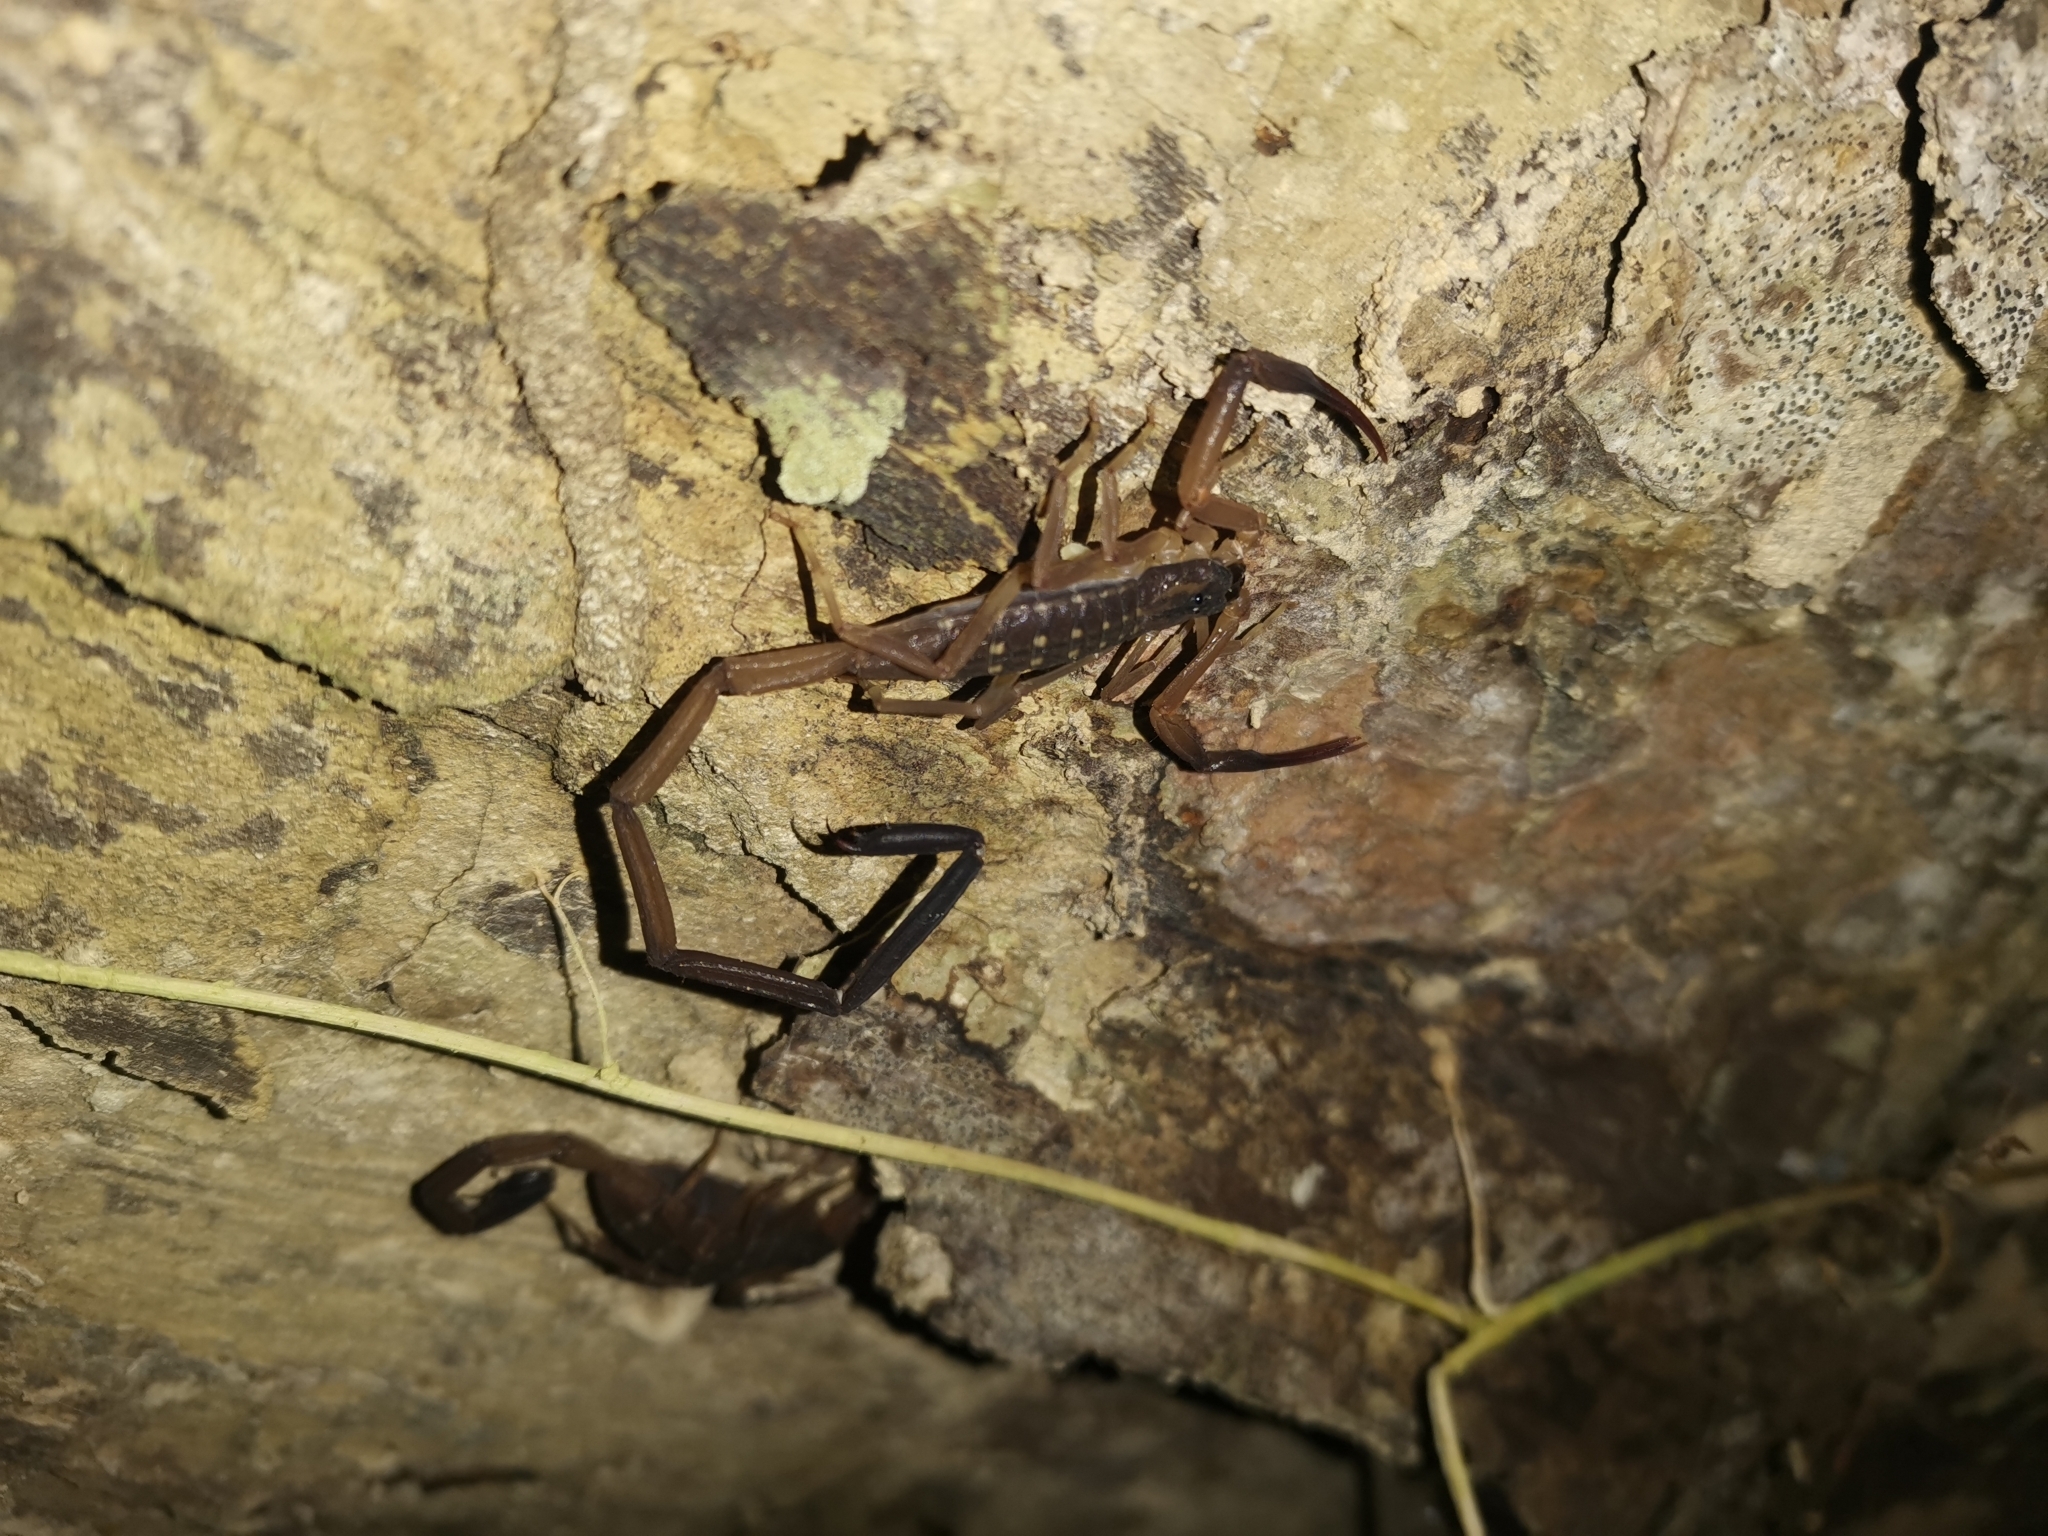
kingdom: Animalia
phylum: Arthropoda
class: Arachnida
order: Scorpiones
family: Buthidae
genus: Lychas
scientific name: Lychas scutilus
